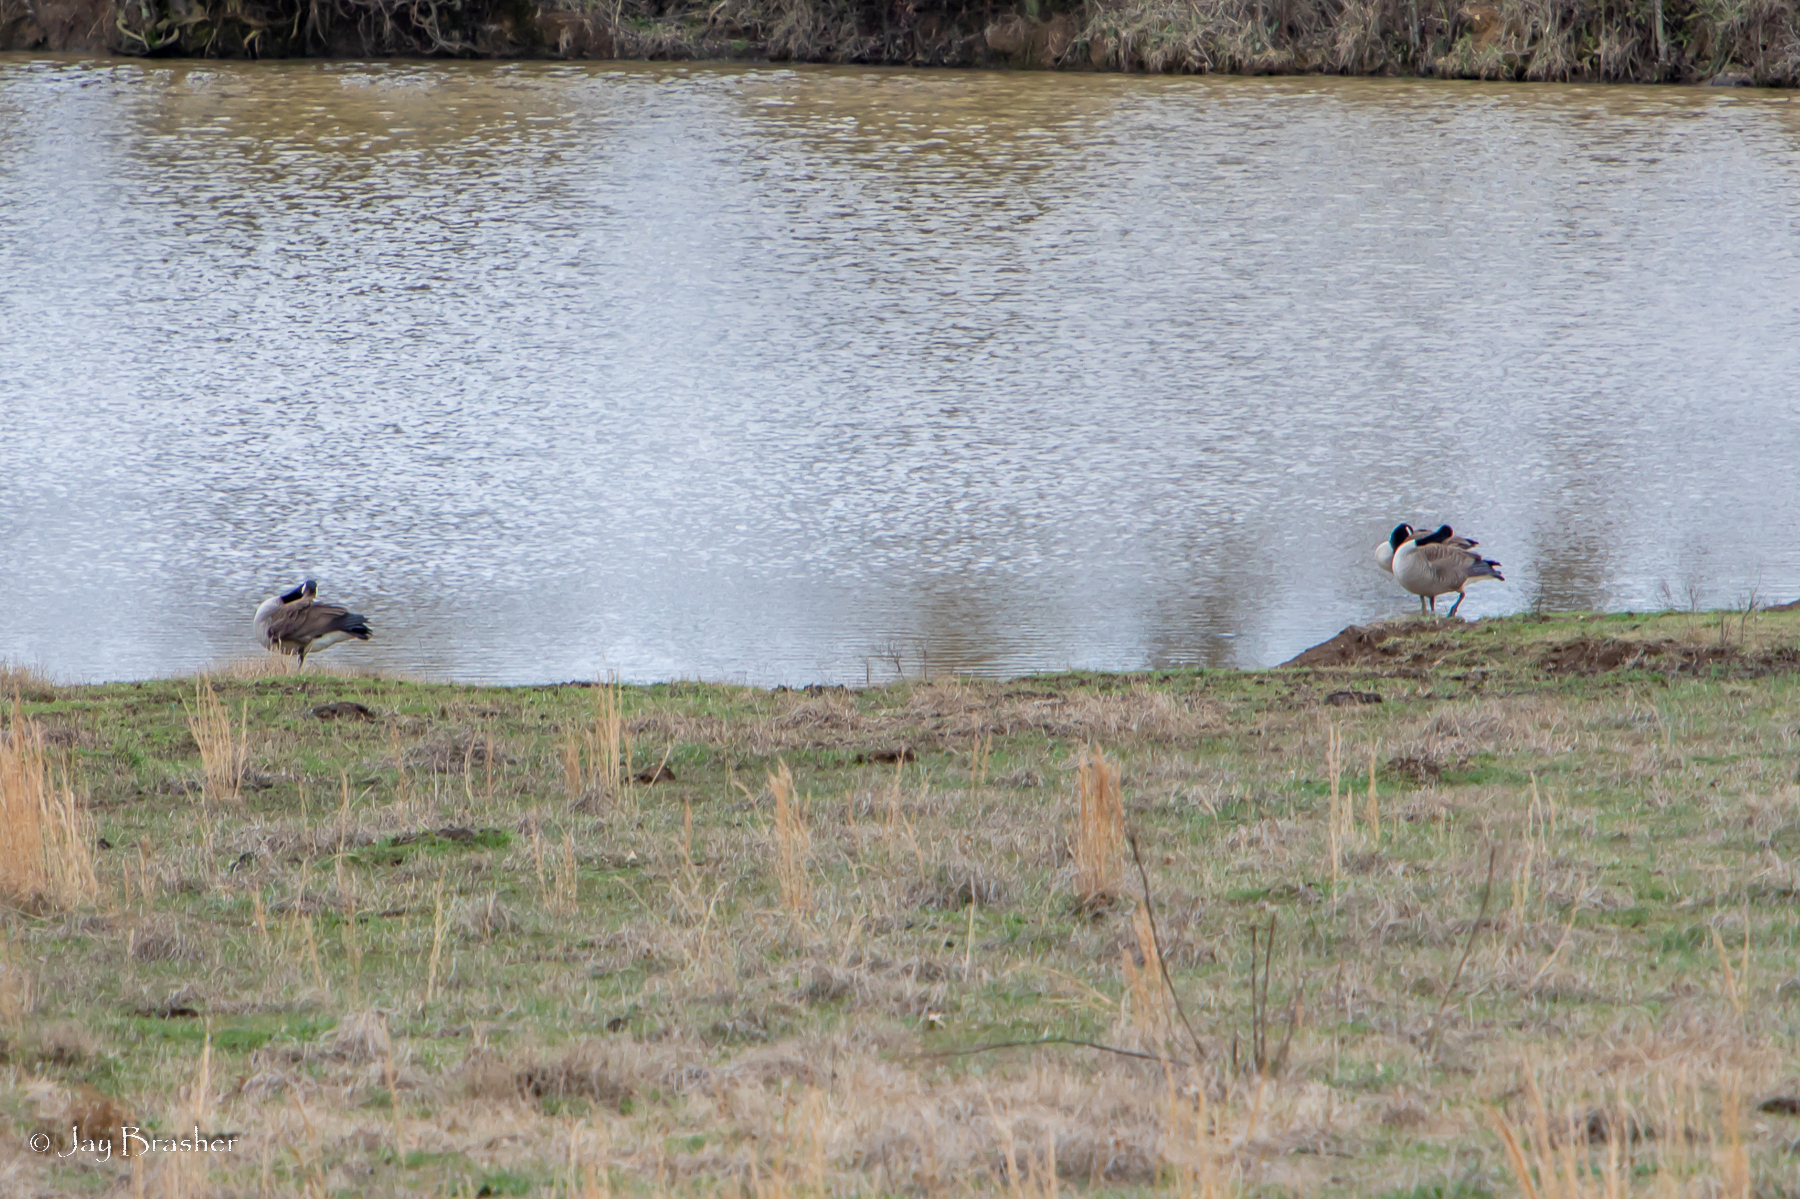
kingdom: Animalia
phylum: Chordata
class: Aves
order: Anseriformes
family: Anatidae
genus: Branta
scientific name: Branta canadensis
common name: Canada goose
